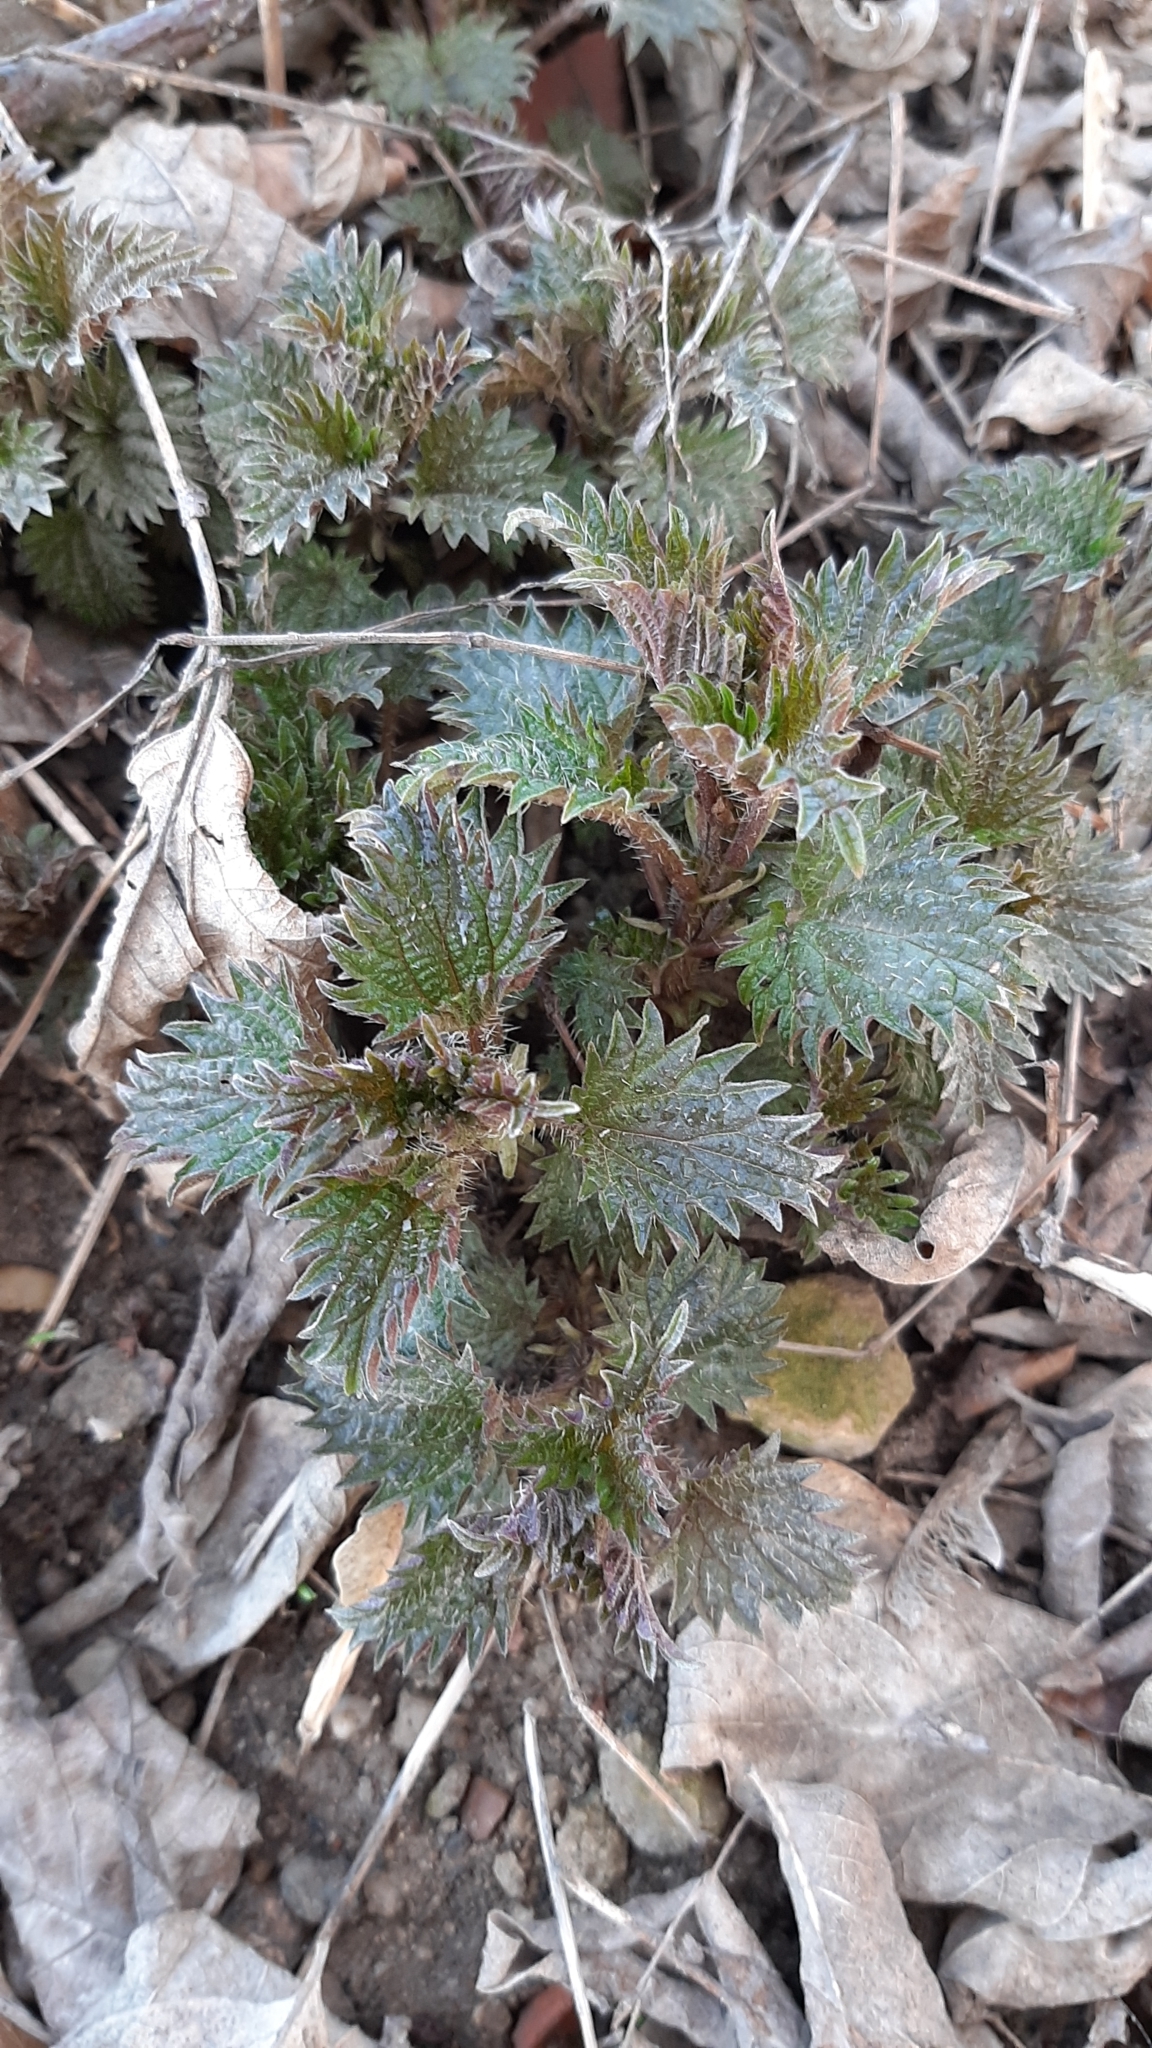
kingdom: Plantae
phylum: Tracheophyta
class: Magnoliopsida
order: Rosales
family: Urticaceae
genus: Urtica
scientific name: Urtica dioica
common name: Common nettle
